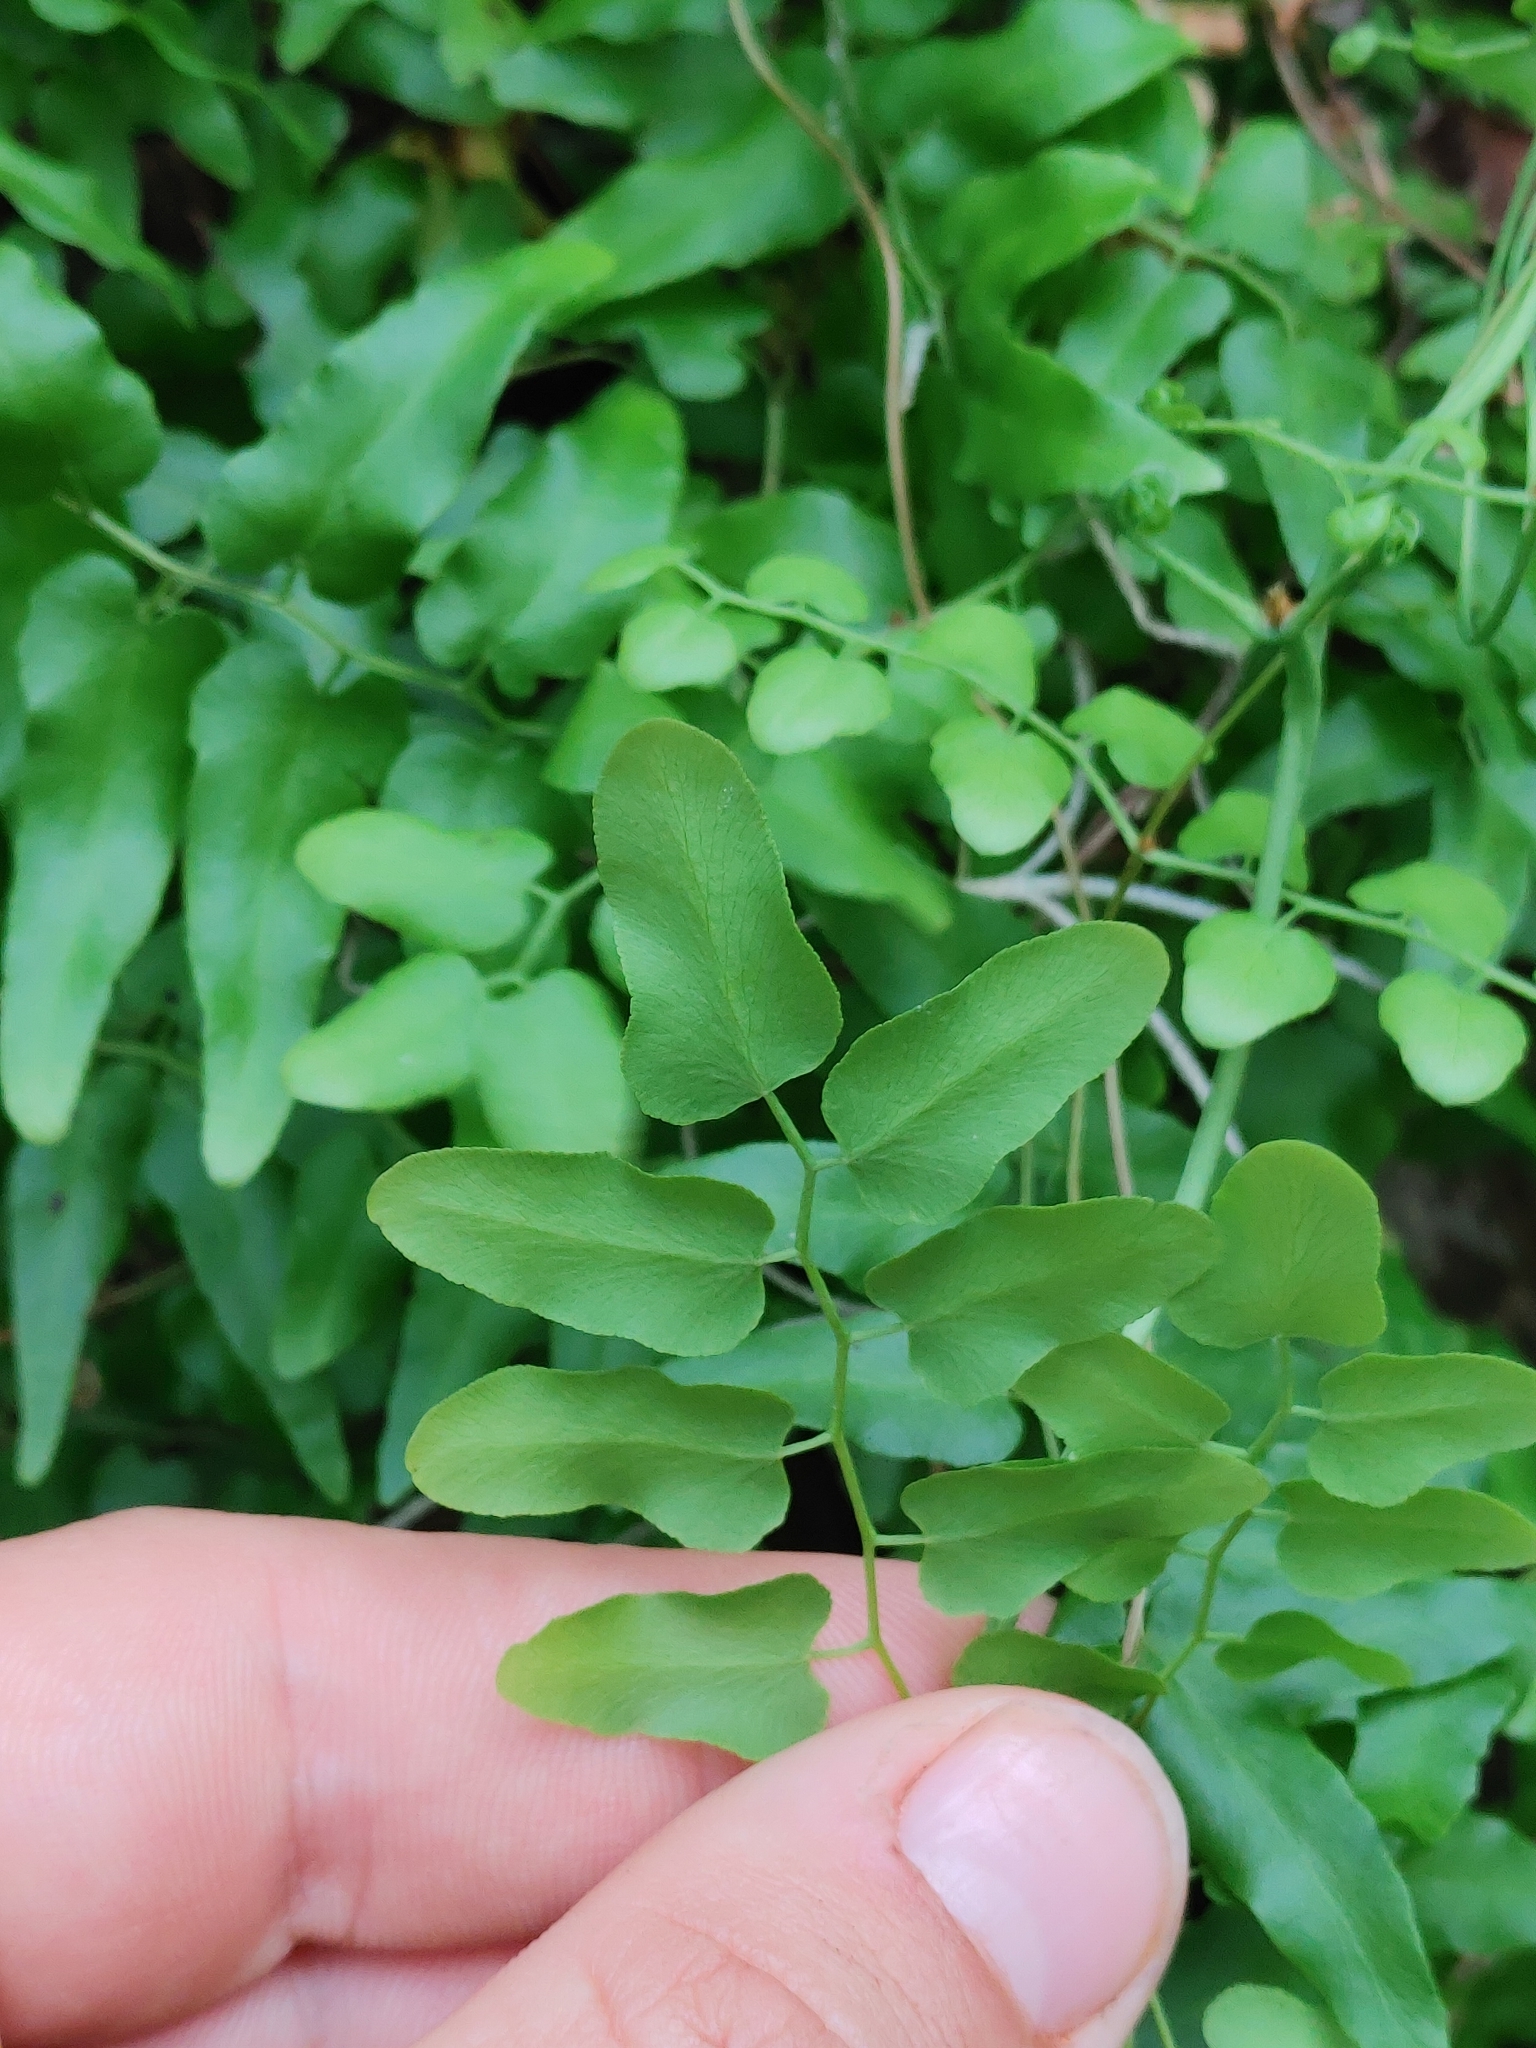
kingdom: Plantae
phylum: Tracheophyta
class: Polypodiopsida
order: Schizaeales
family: Lygodiaceae
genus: Lygodium
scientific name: Lygodium microphyllum
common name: Small-leaf climbing fern
